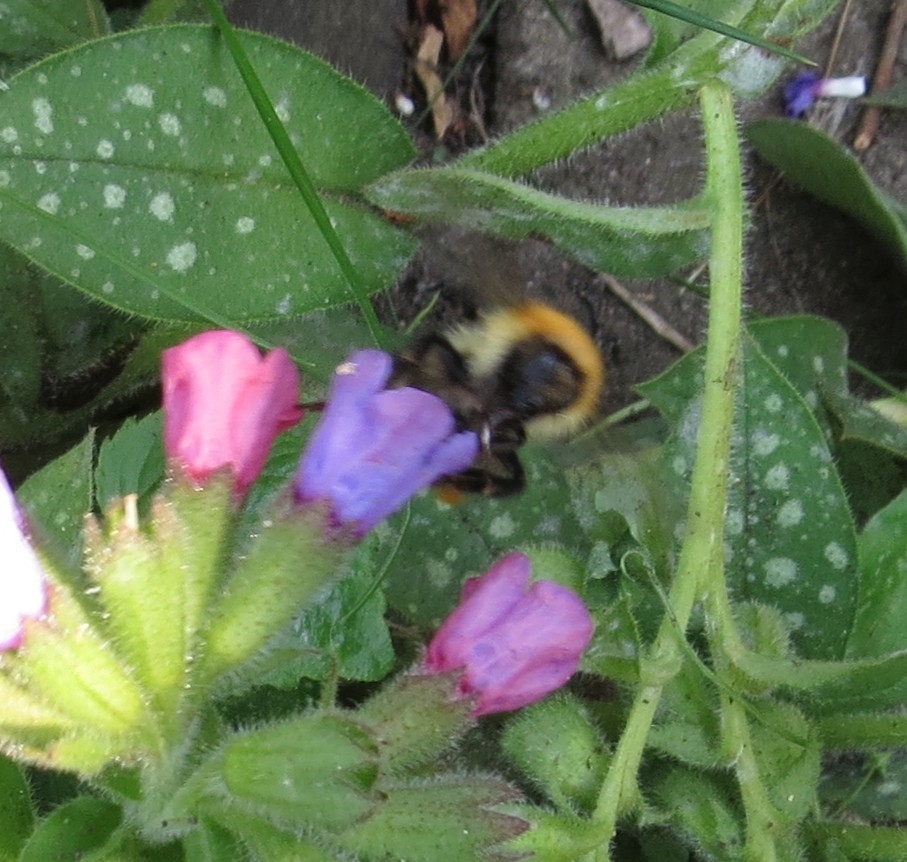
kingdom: Animalia
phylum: Arthropoda
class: Insecta
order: Hymenoptera
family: Apidae
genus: Bombus
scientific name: Bombus pascuorum
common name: Common carder bee
